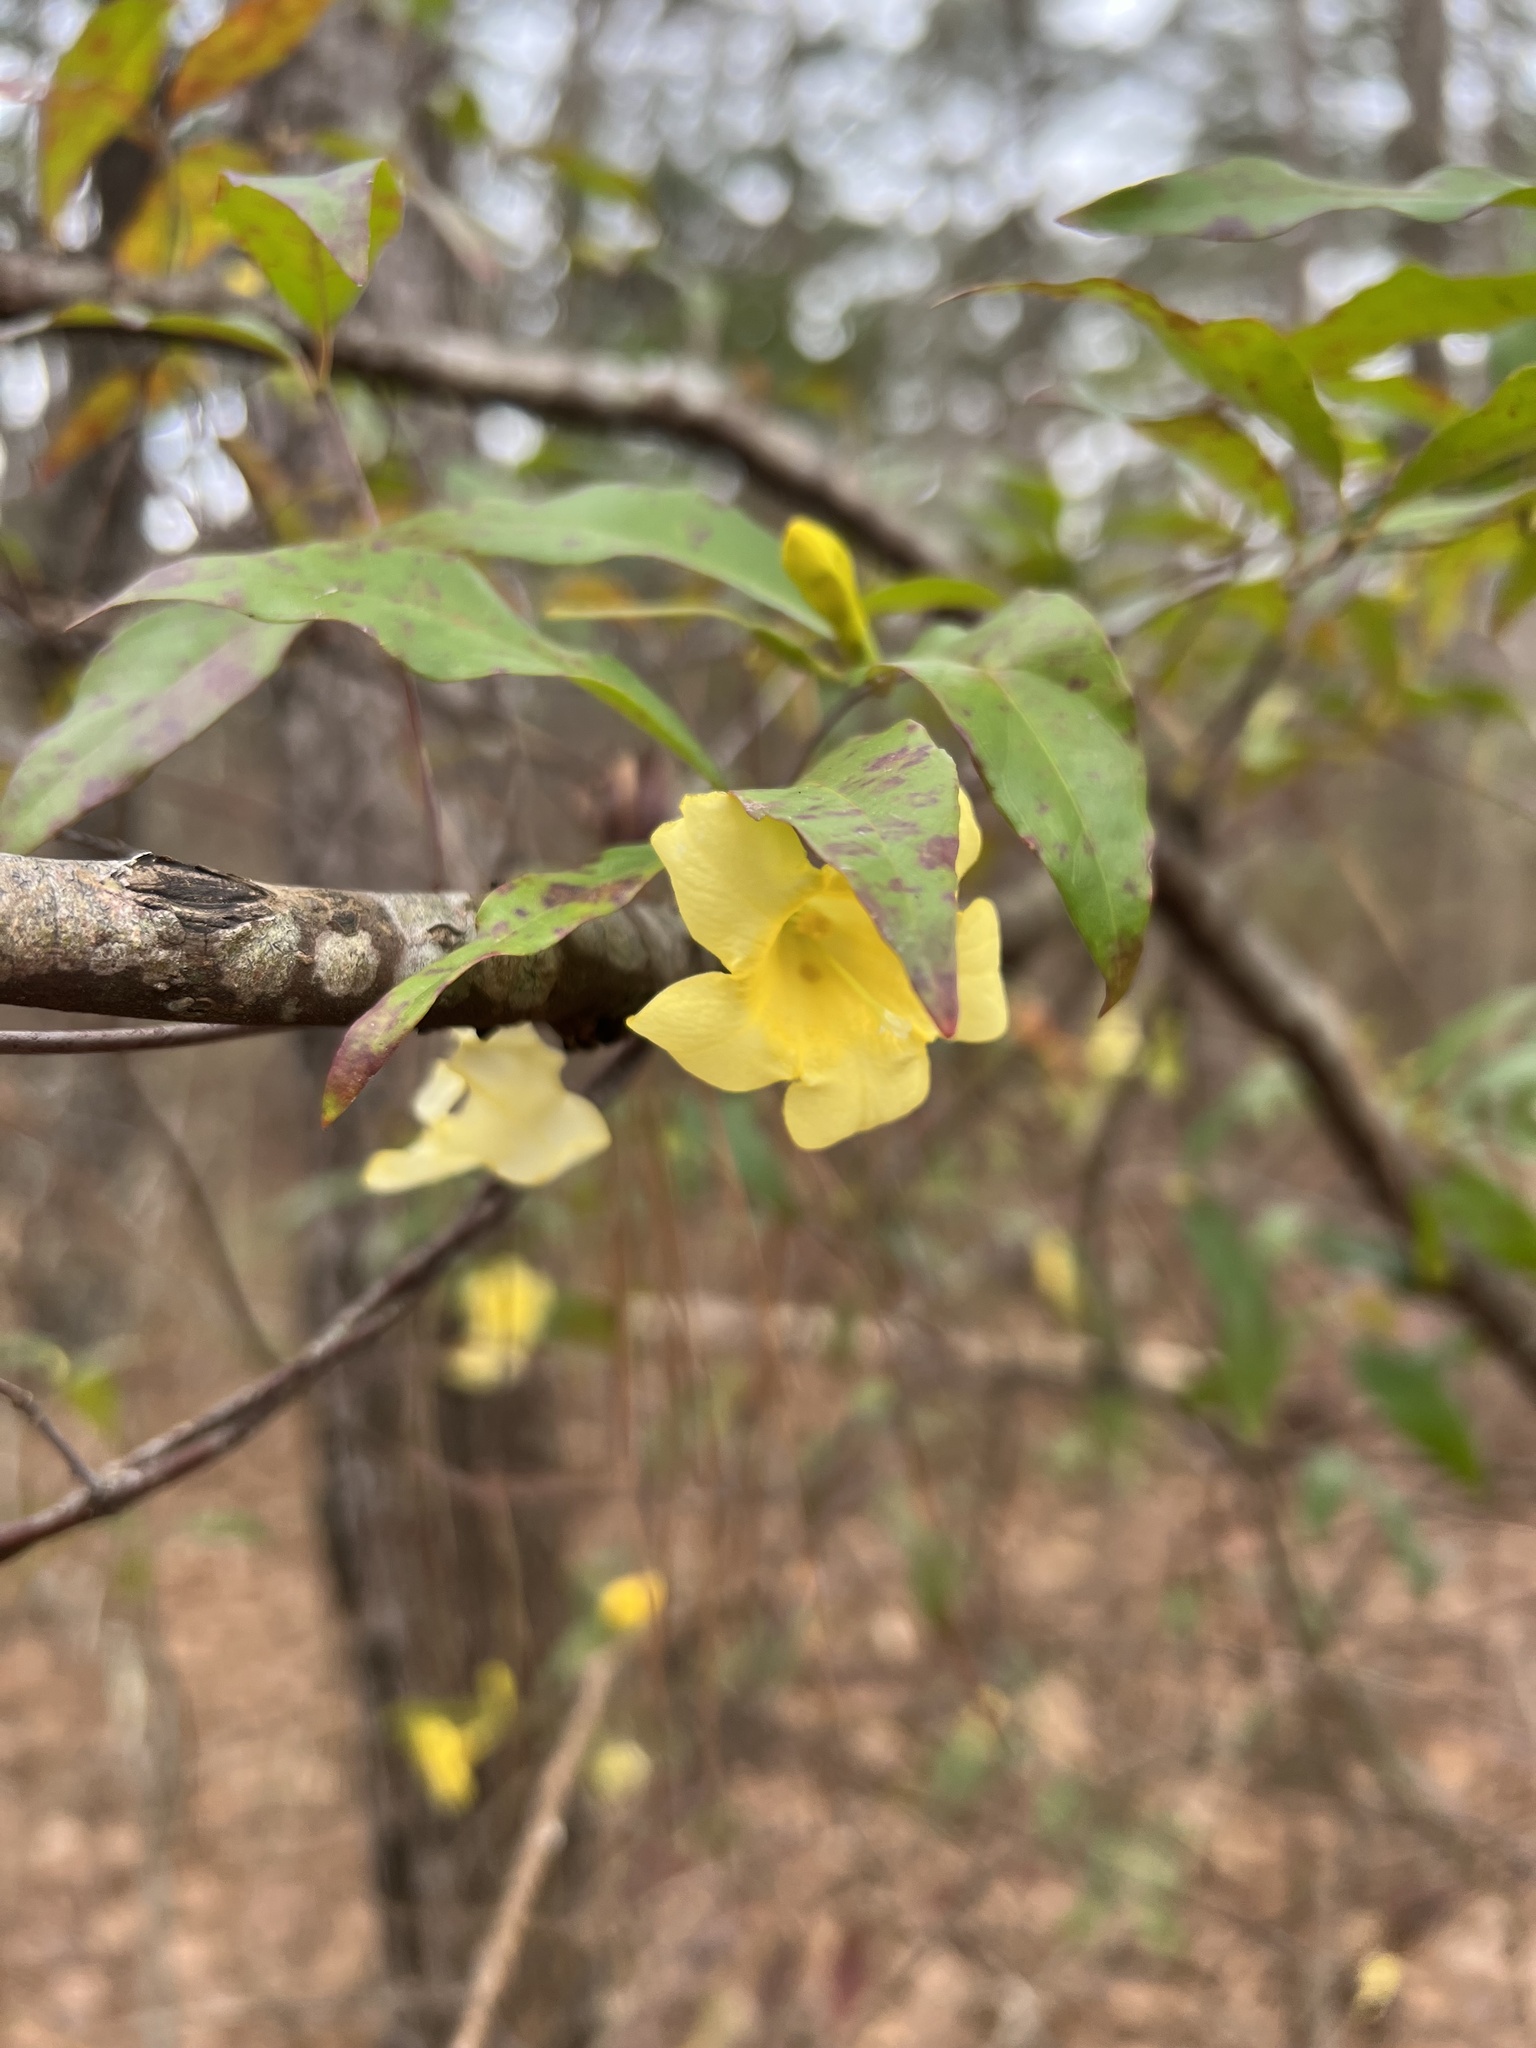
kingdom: Plantae
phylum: Tracheophyta
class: Magnoliopsida
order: Gentianales
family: Gelsemiaceae
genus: Gelsemium
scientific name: Gelsemium sempervirens
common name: Carolina-jasmine
